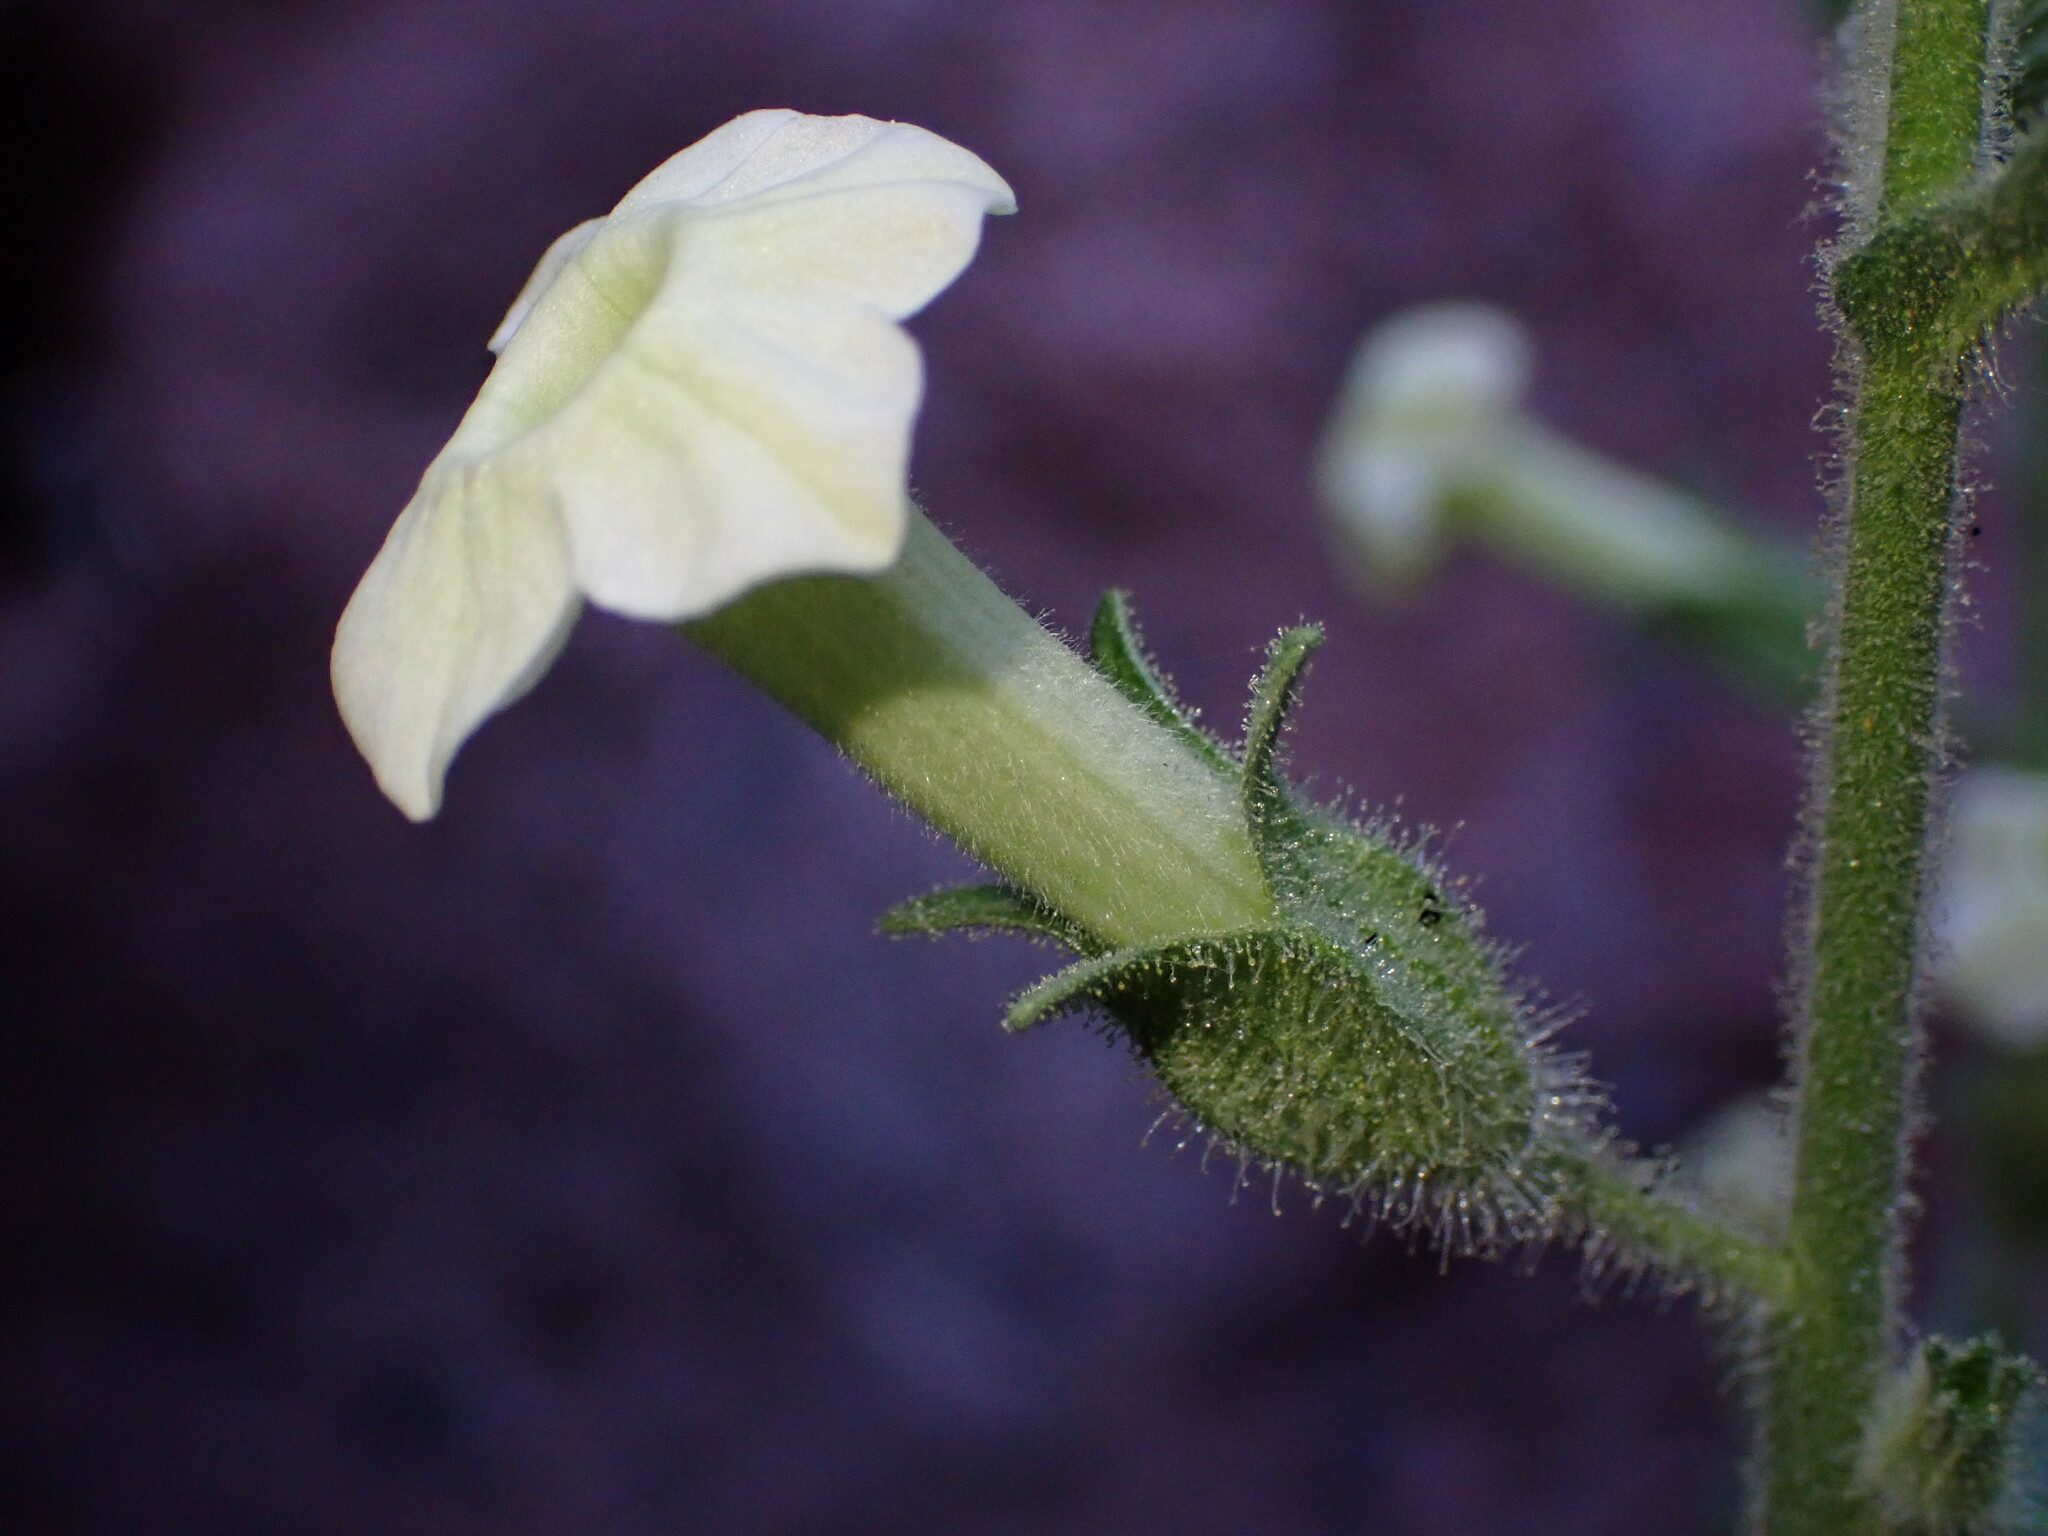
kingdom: Plantae
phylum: Tracheophyta
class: Magnoliopsida
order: Solanales
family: Solanaceae
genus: Nicotiana
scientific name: Nicotiana obtusifolia
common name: Desert tobacco
